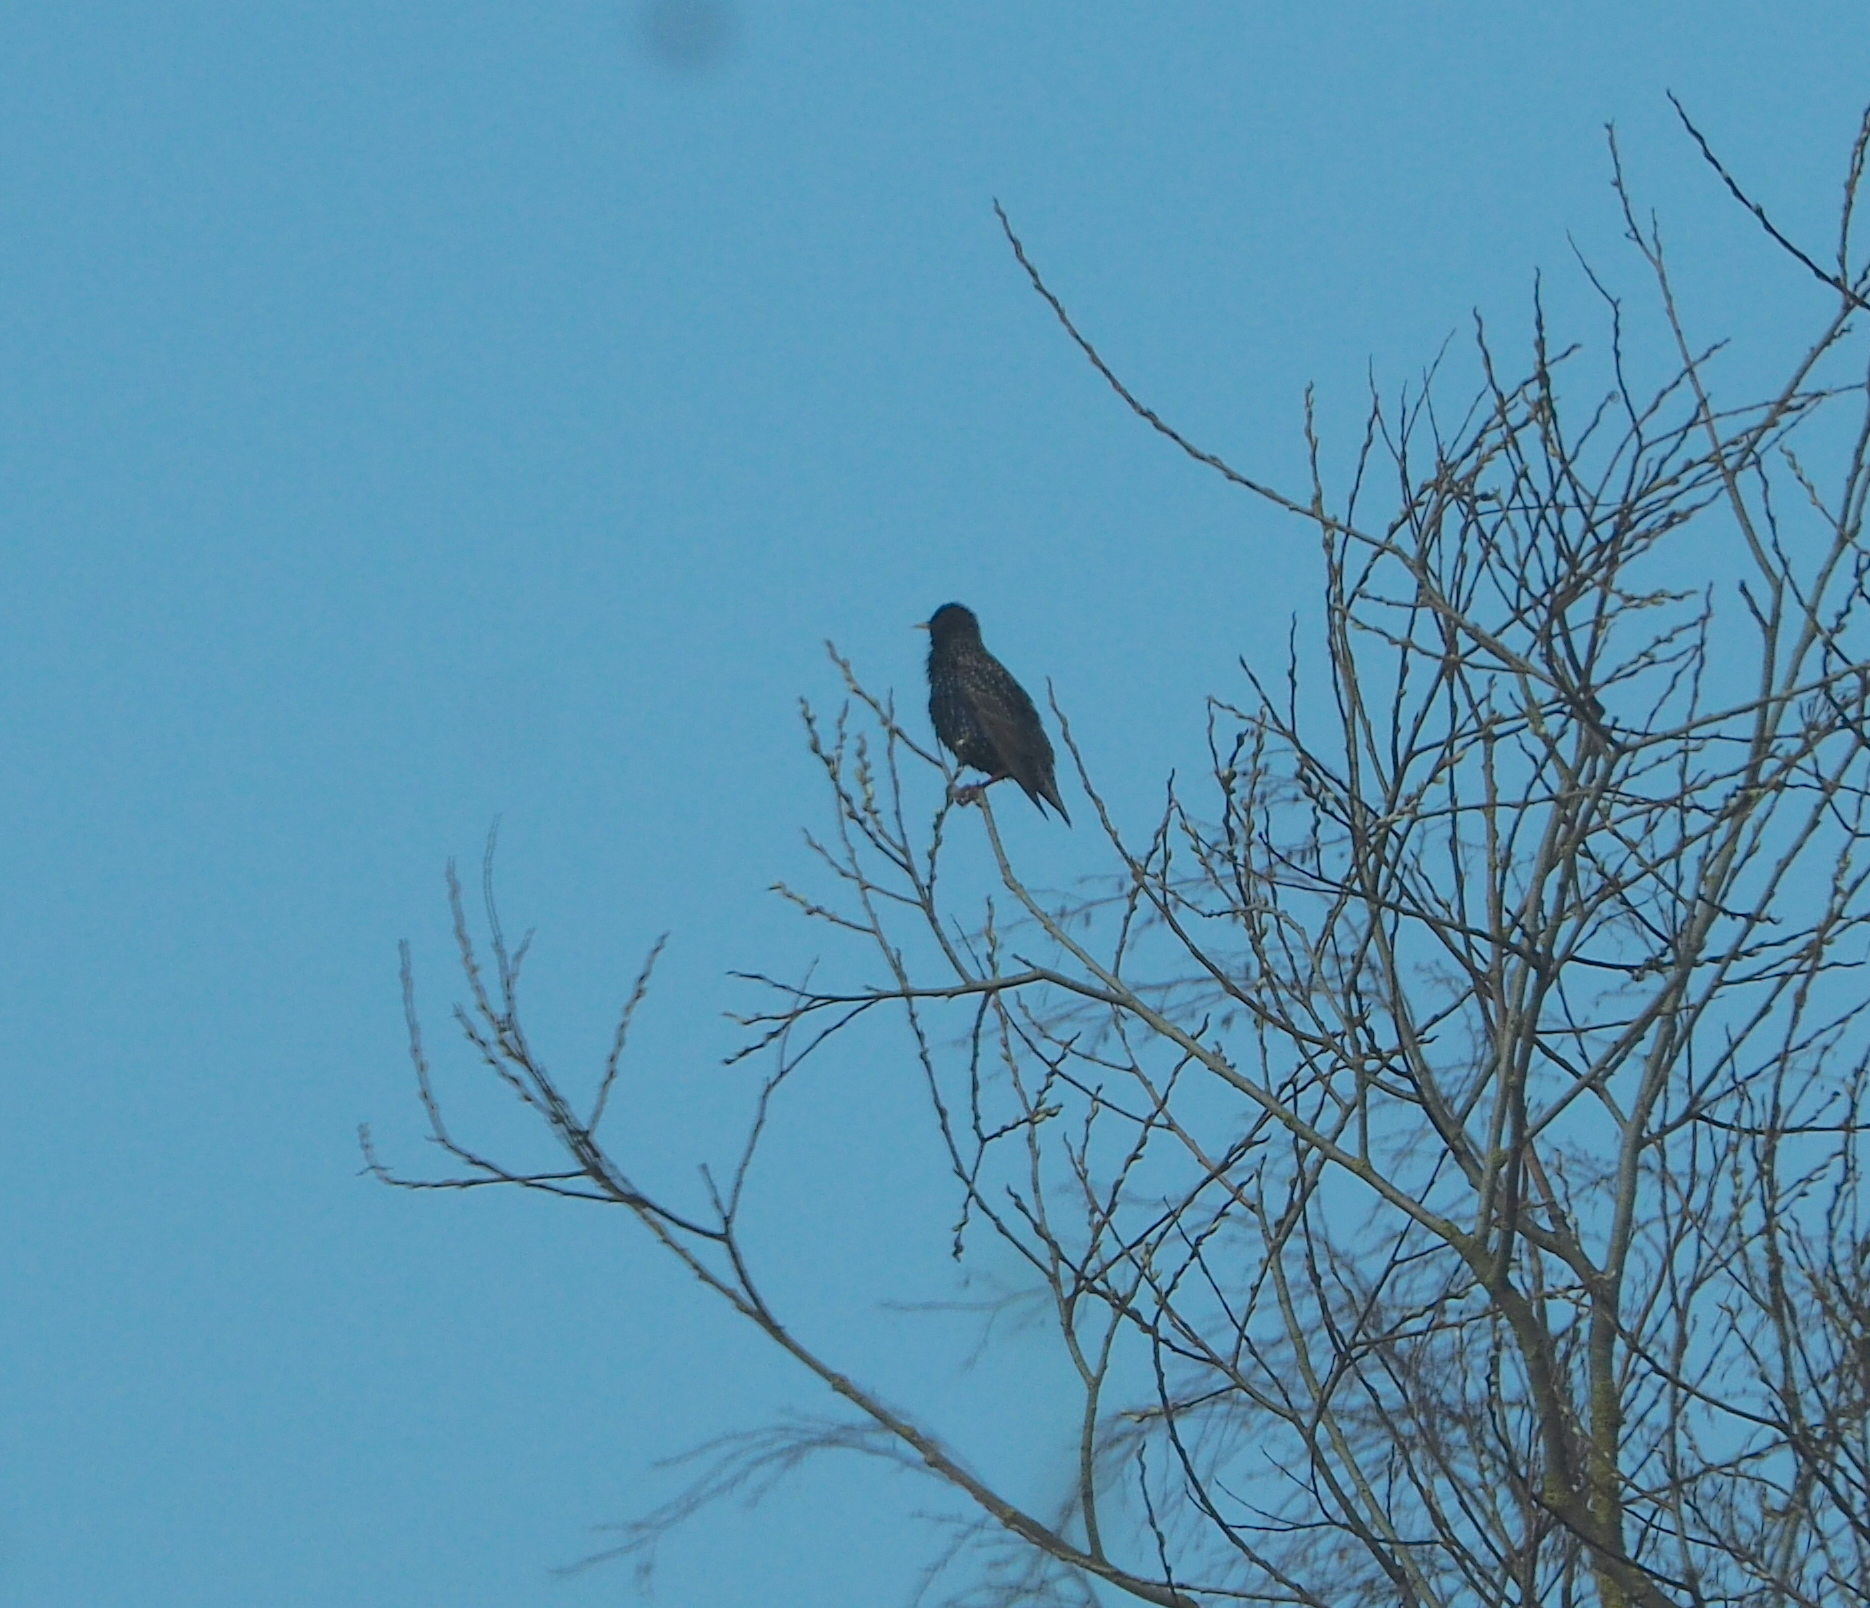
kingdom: Animalia
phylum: Chordata
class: Aves
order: Passeriformes
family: Sturnidae
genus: Sturnus
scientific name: Sturnus vulgaris
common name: Common starling
